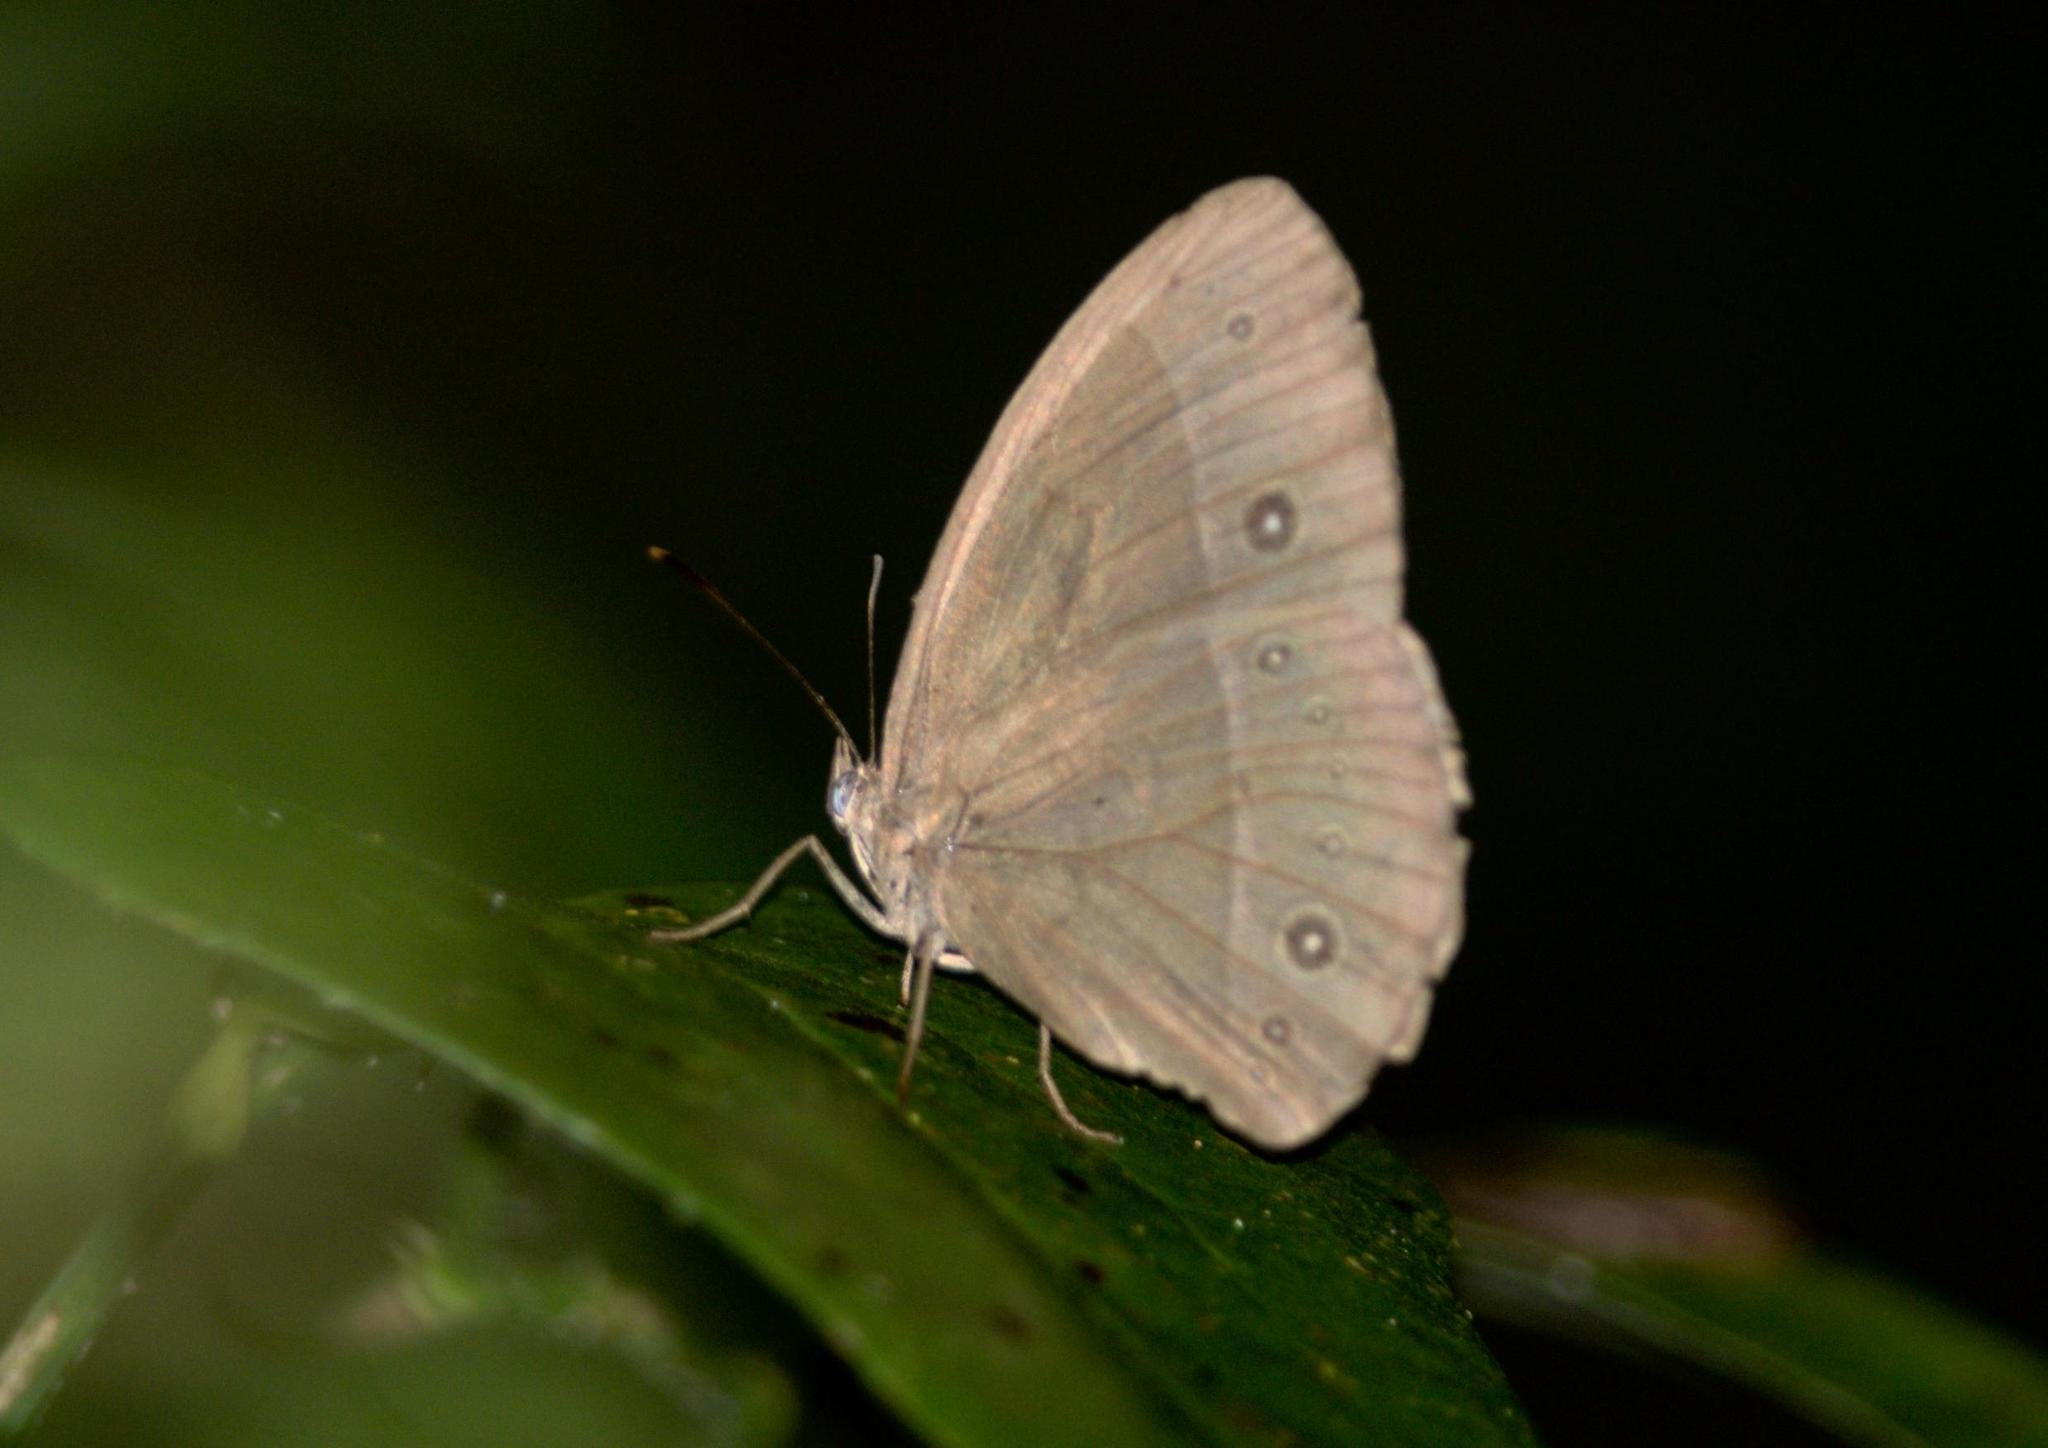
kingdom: Animalia
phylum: Arthropoda
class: Insecta
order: Lepidoptera
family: Nymphalidae
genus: Mycalesis
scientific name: Mycalesis francisca
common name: Lilacine bushbrown
